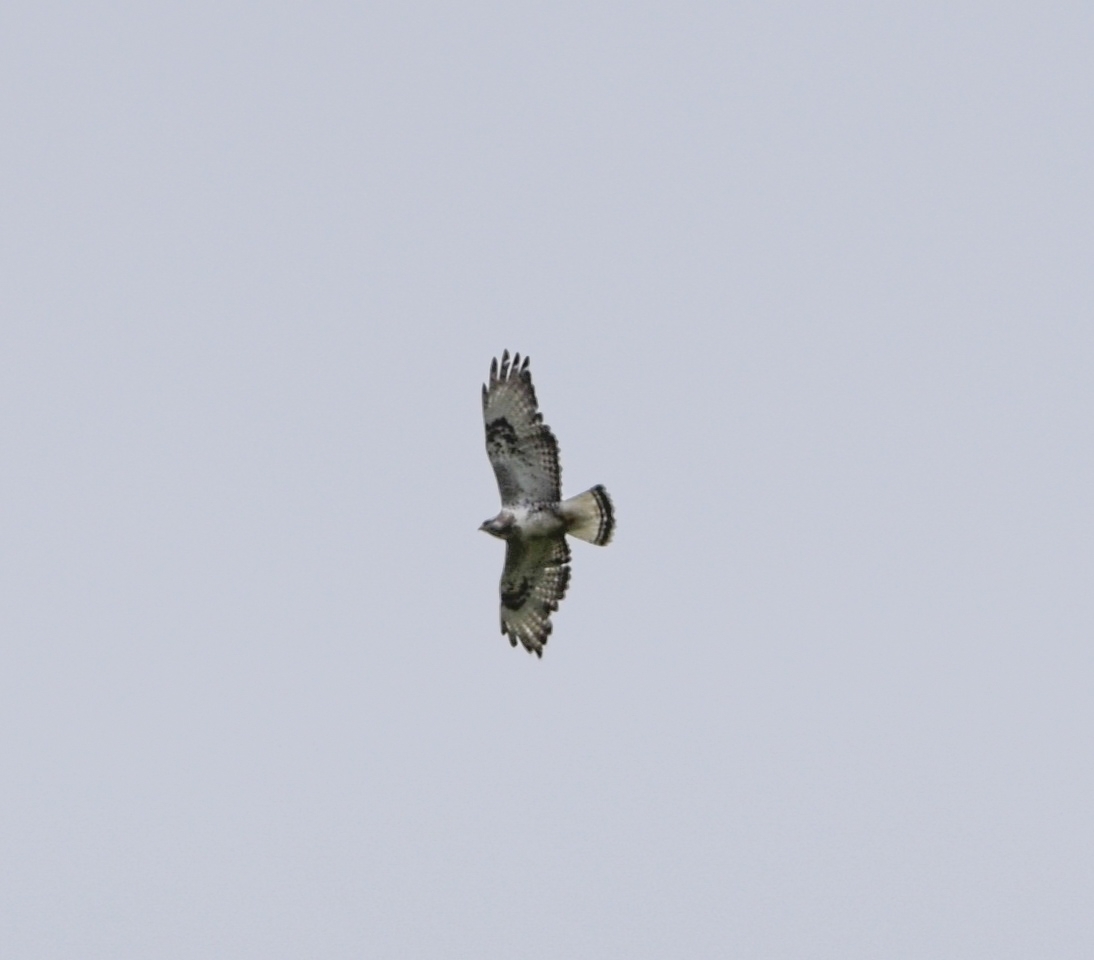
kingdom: Animalia
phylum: Chordata
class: Aves
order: Accipitriformes
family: Accipitridae
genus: Buteo
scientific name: Buteo lagopus
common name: Rough-legged buzzard
